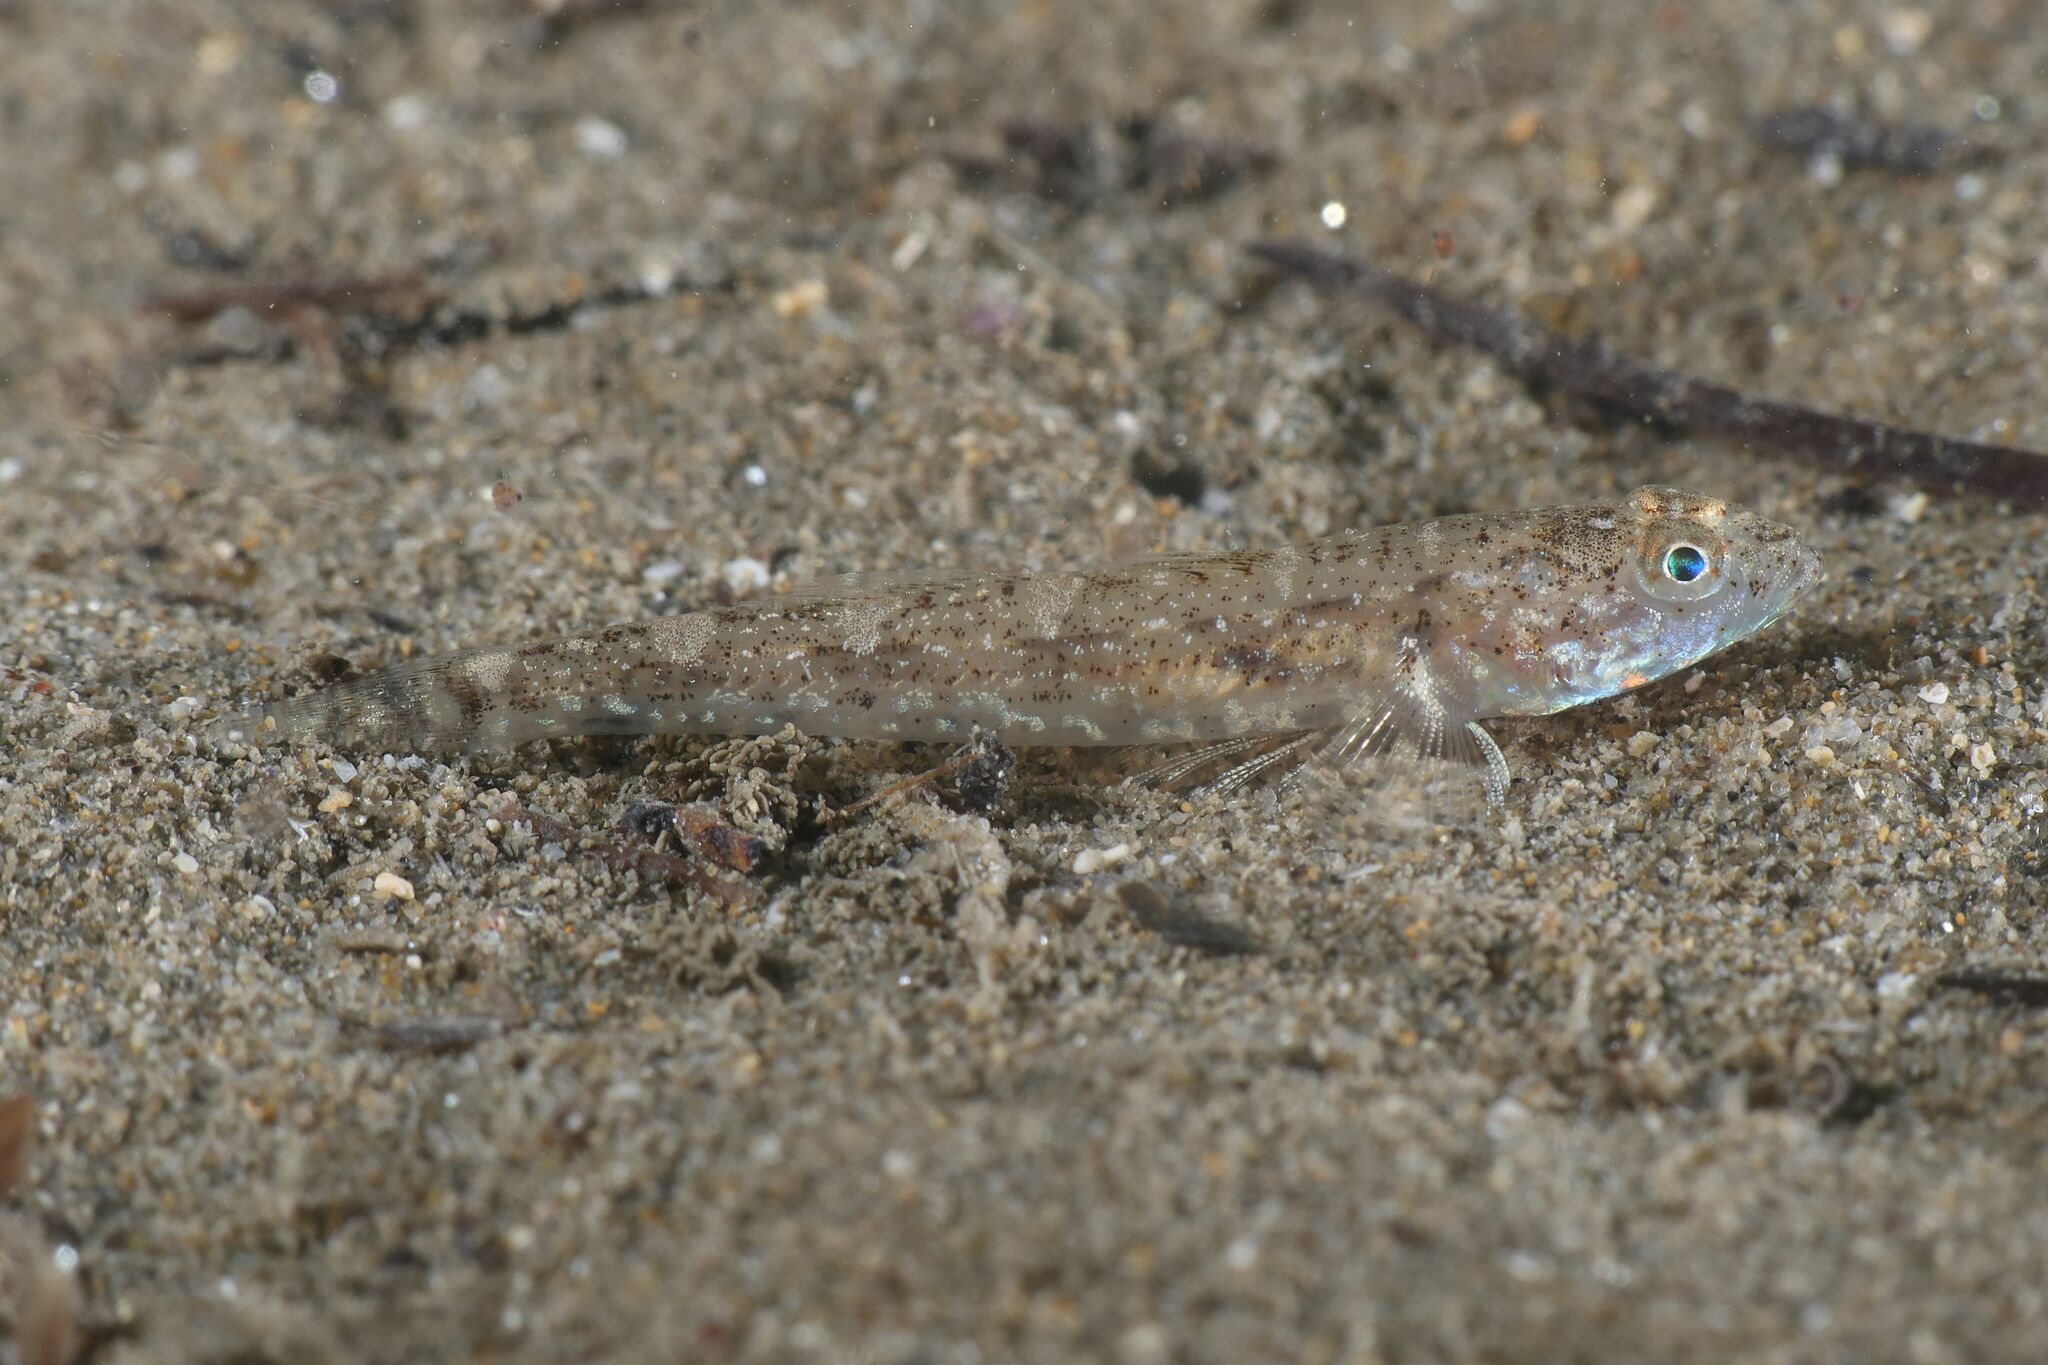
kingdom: Animalia
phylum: Chordata
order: Perciformes
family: Gobiidae
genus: Pomatoschistus
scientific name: Pomatoschistus marmoratus
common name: Marbled goby
